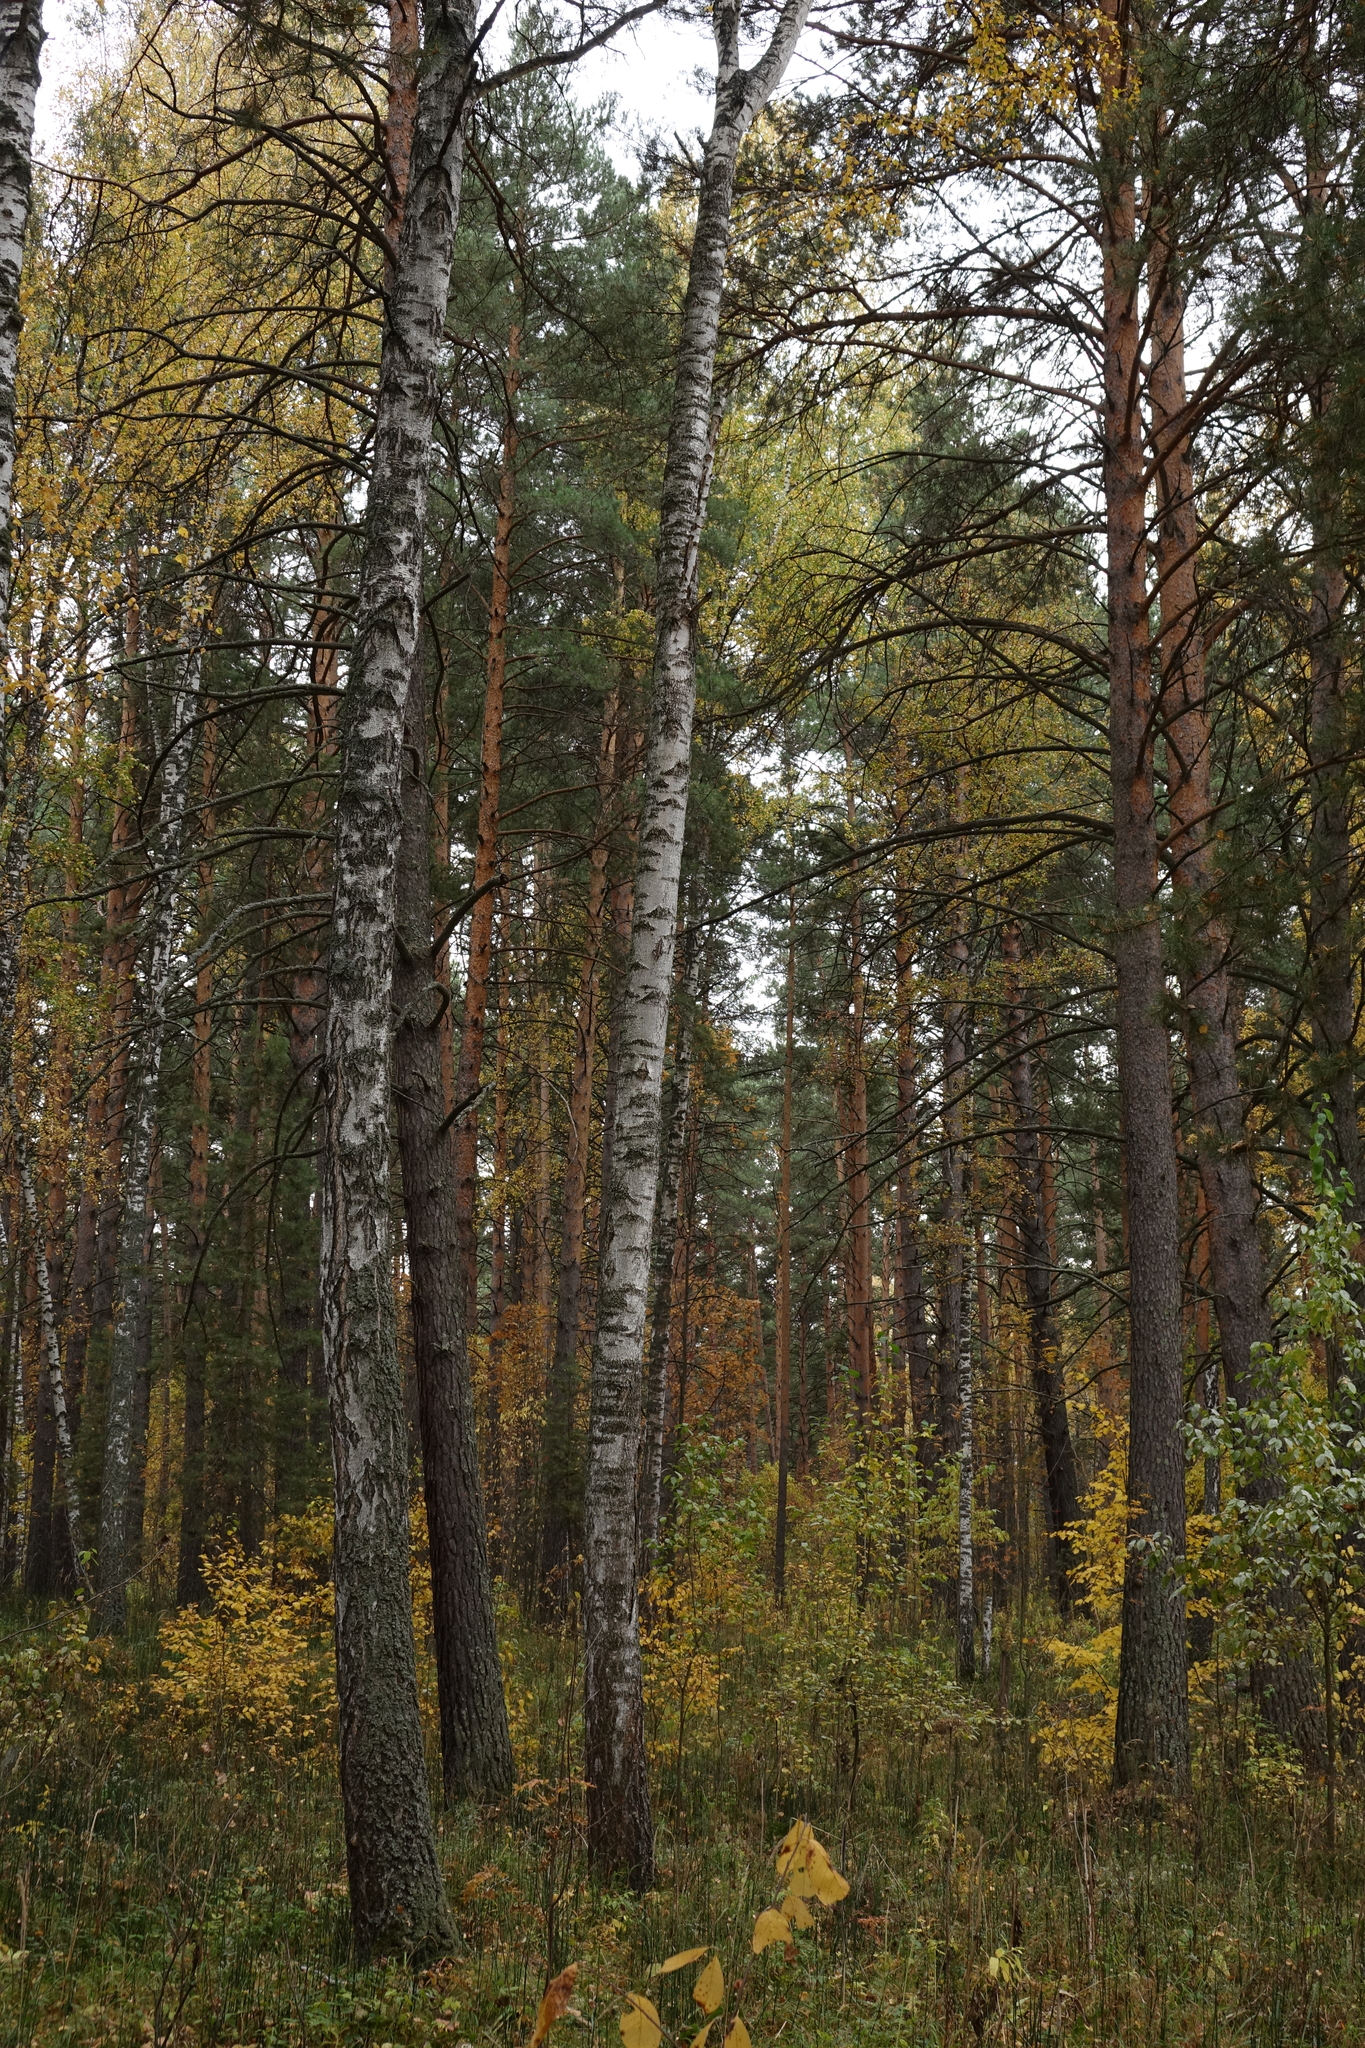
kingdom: Plantae
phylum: Tracheophyta
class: Pinopsida
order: Pinales
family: Pinaceae
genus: Pinus
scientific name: Pinus sylvestris
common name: Scots pine
